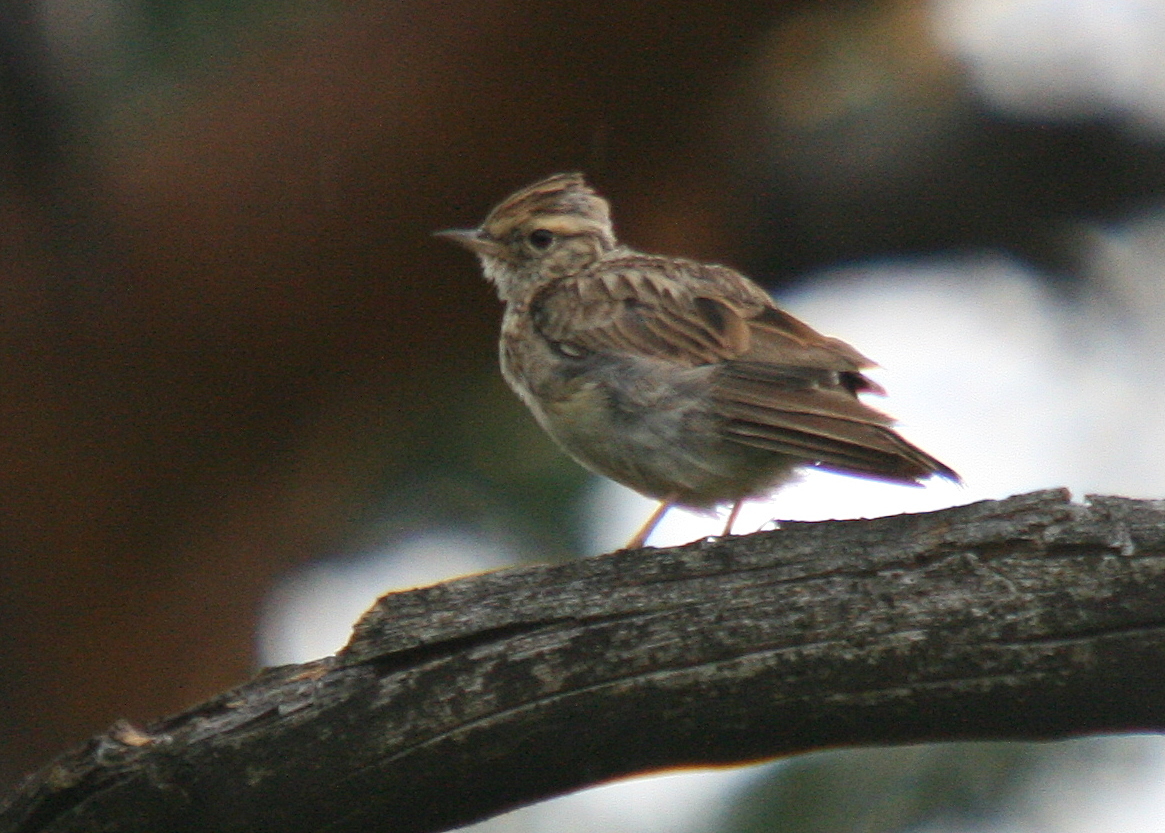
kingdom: Animalia
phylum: Chordata
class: Aves
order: Passeriformes
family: Alaudidae
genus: Lullula
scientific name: Lullula arborea
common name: Woodlark
